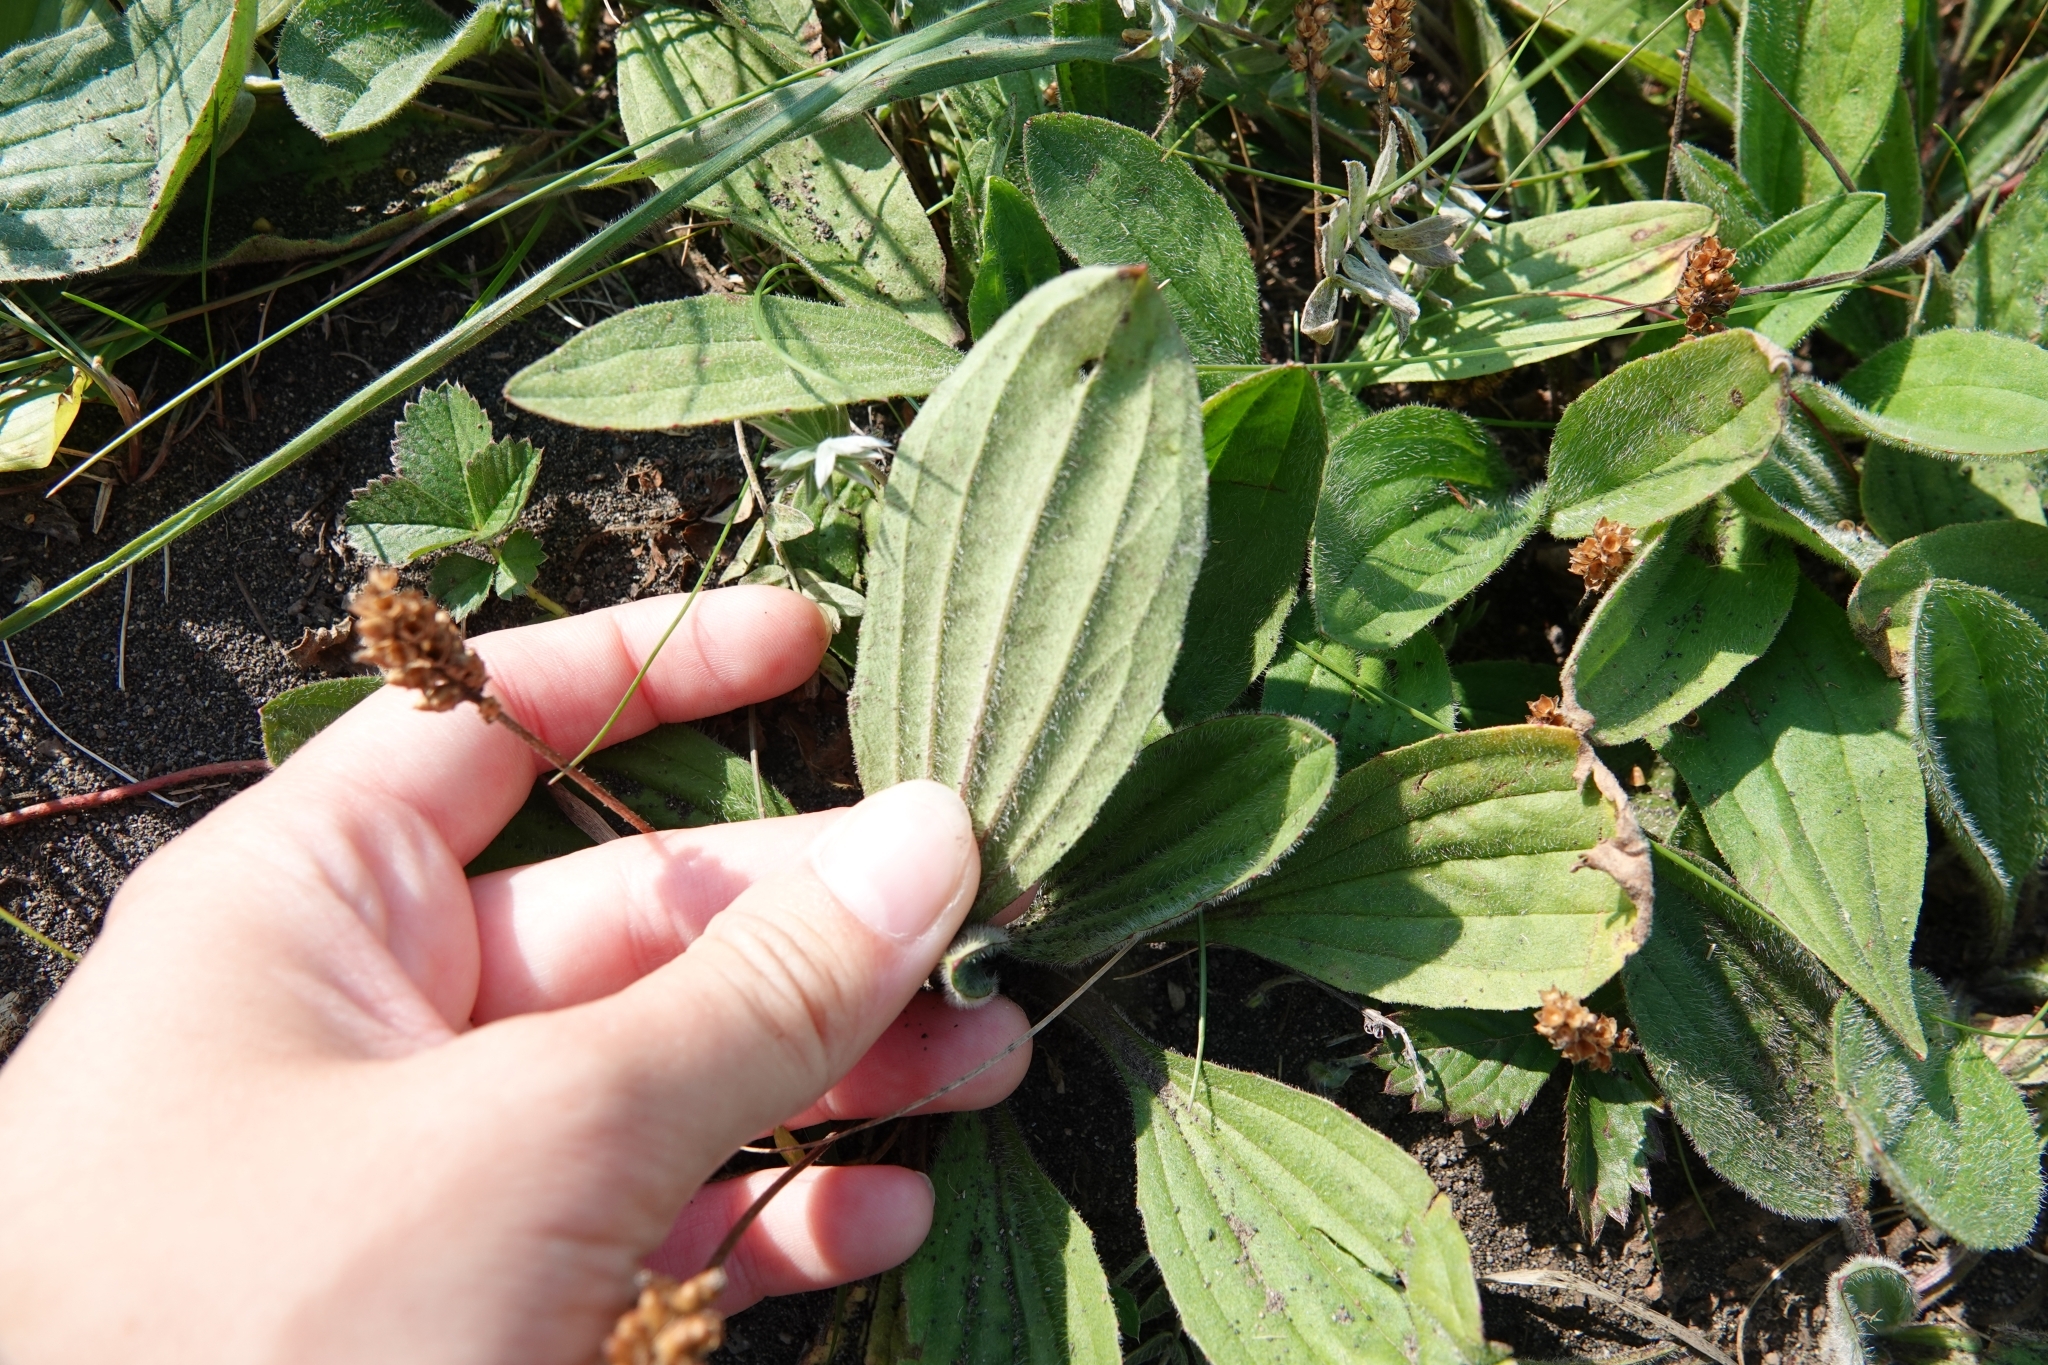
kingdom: Plantae
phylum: Tracheophyta
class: Magnoliopsida
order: Lamiales
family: Plantaginaceae
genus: Plantago
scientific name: Plantago camtschatica
